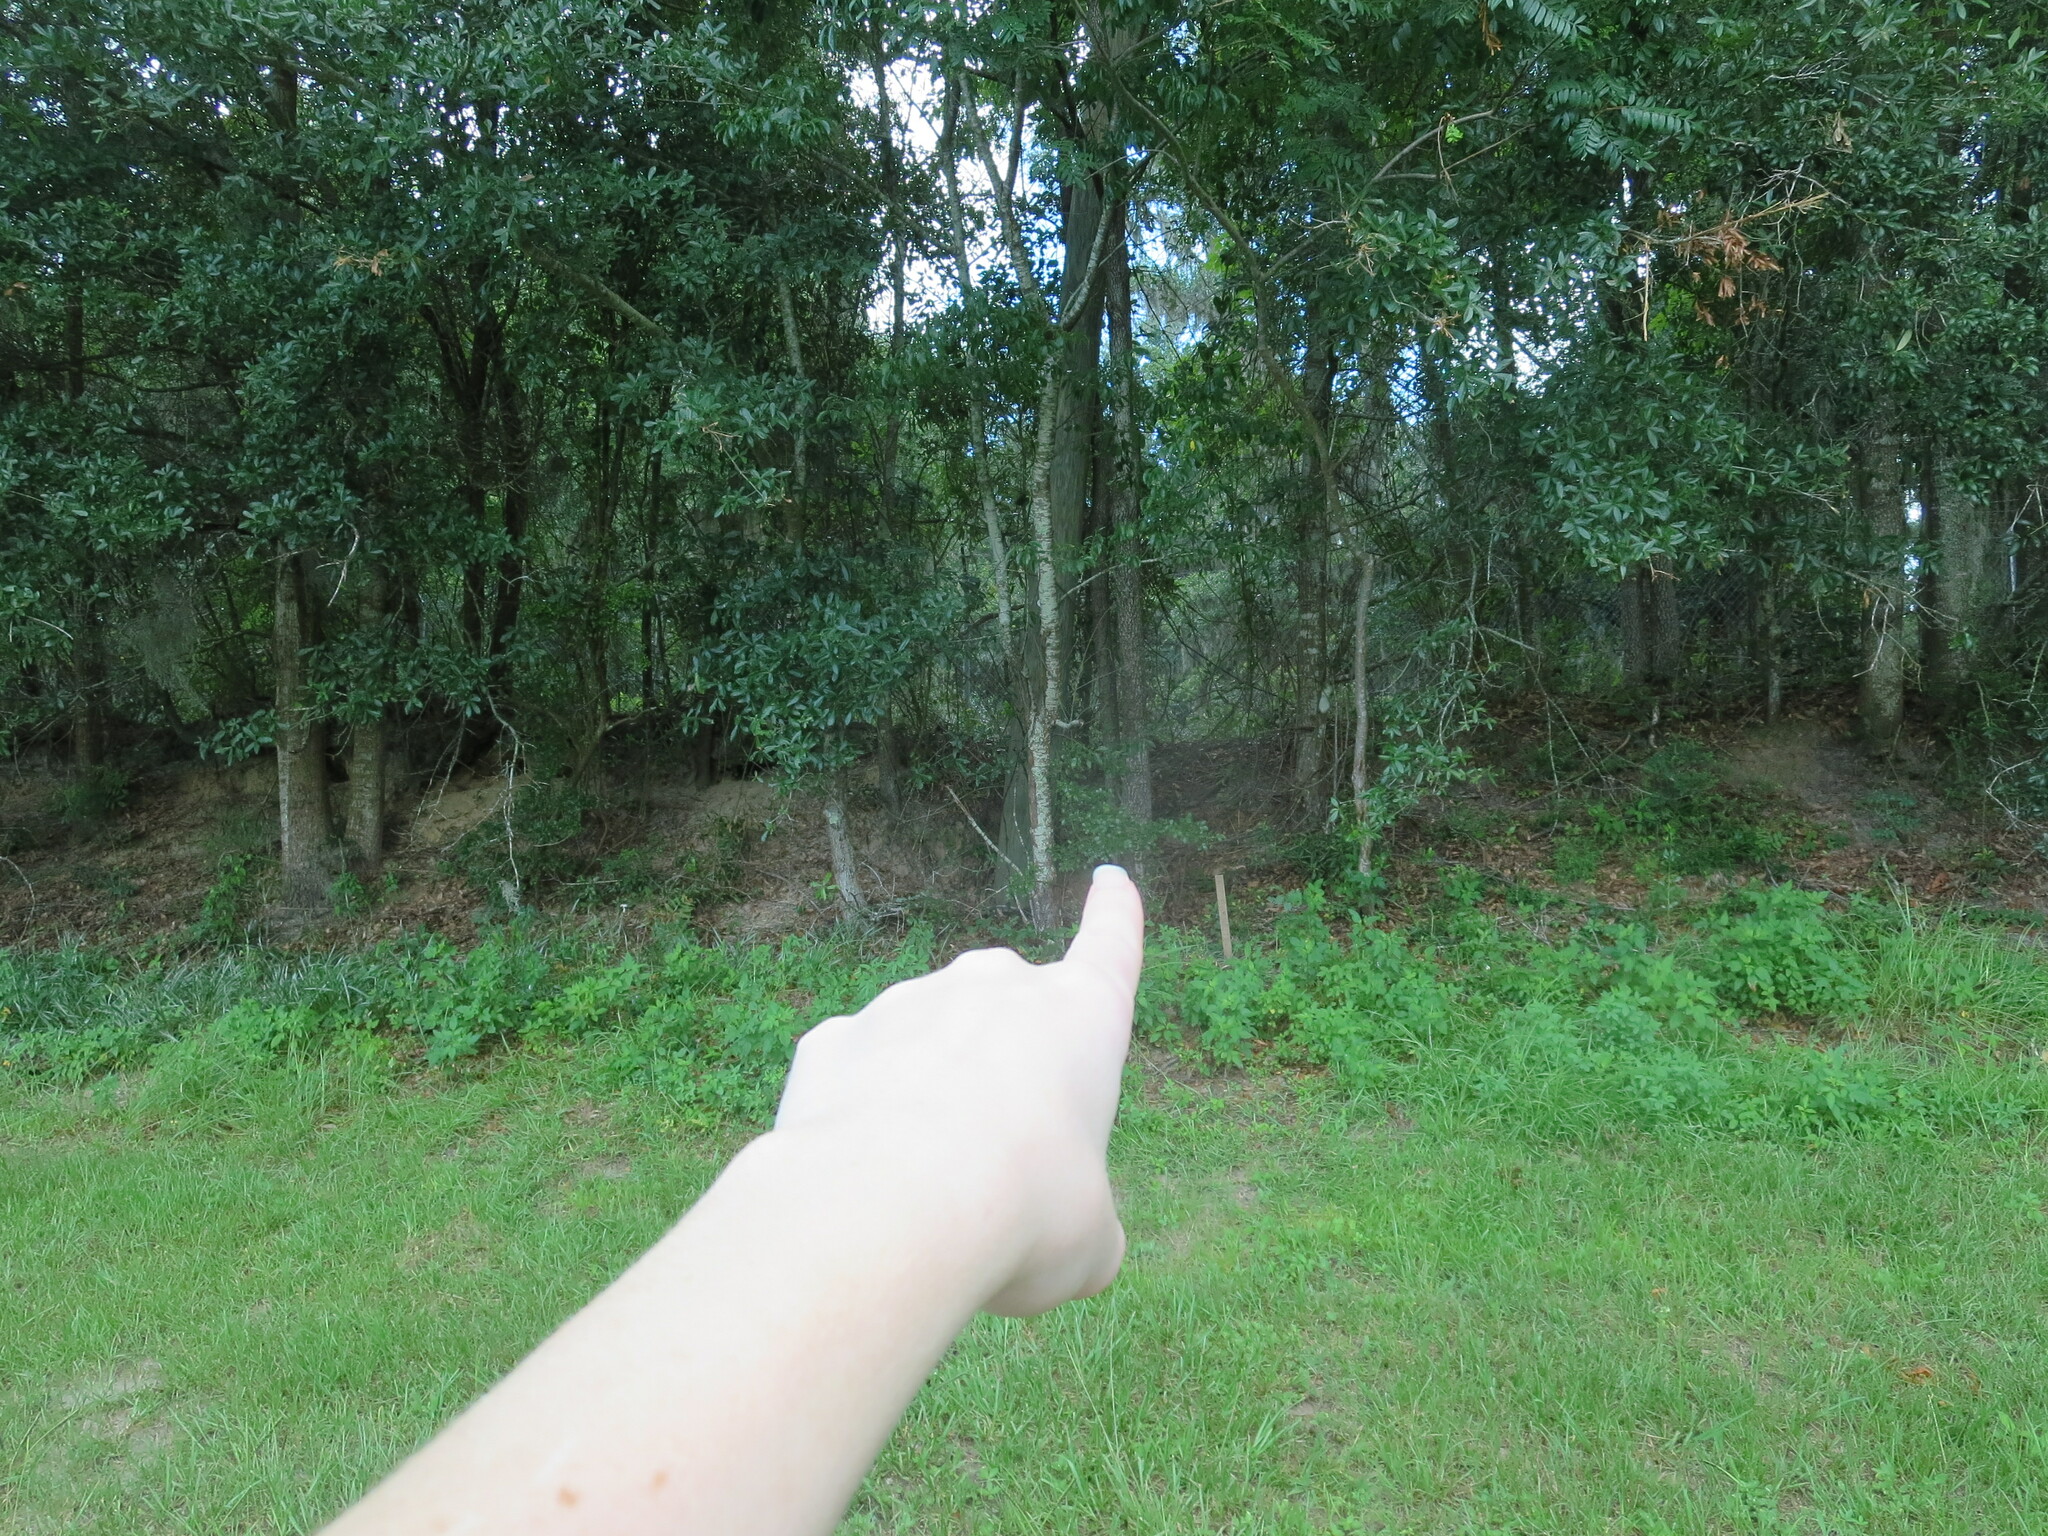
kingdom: Plantae
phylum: Tracheophyta
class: Magnoliopsida
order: Ericales
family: Ebenaceae
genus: Diospyros
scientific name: Diospyros virginiana
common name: Persimmon
